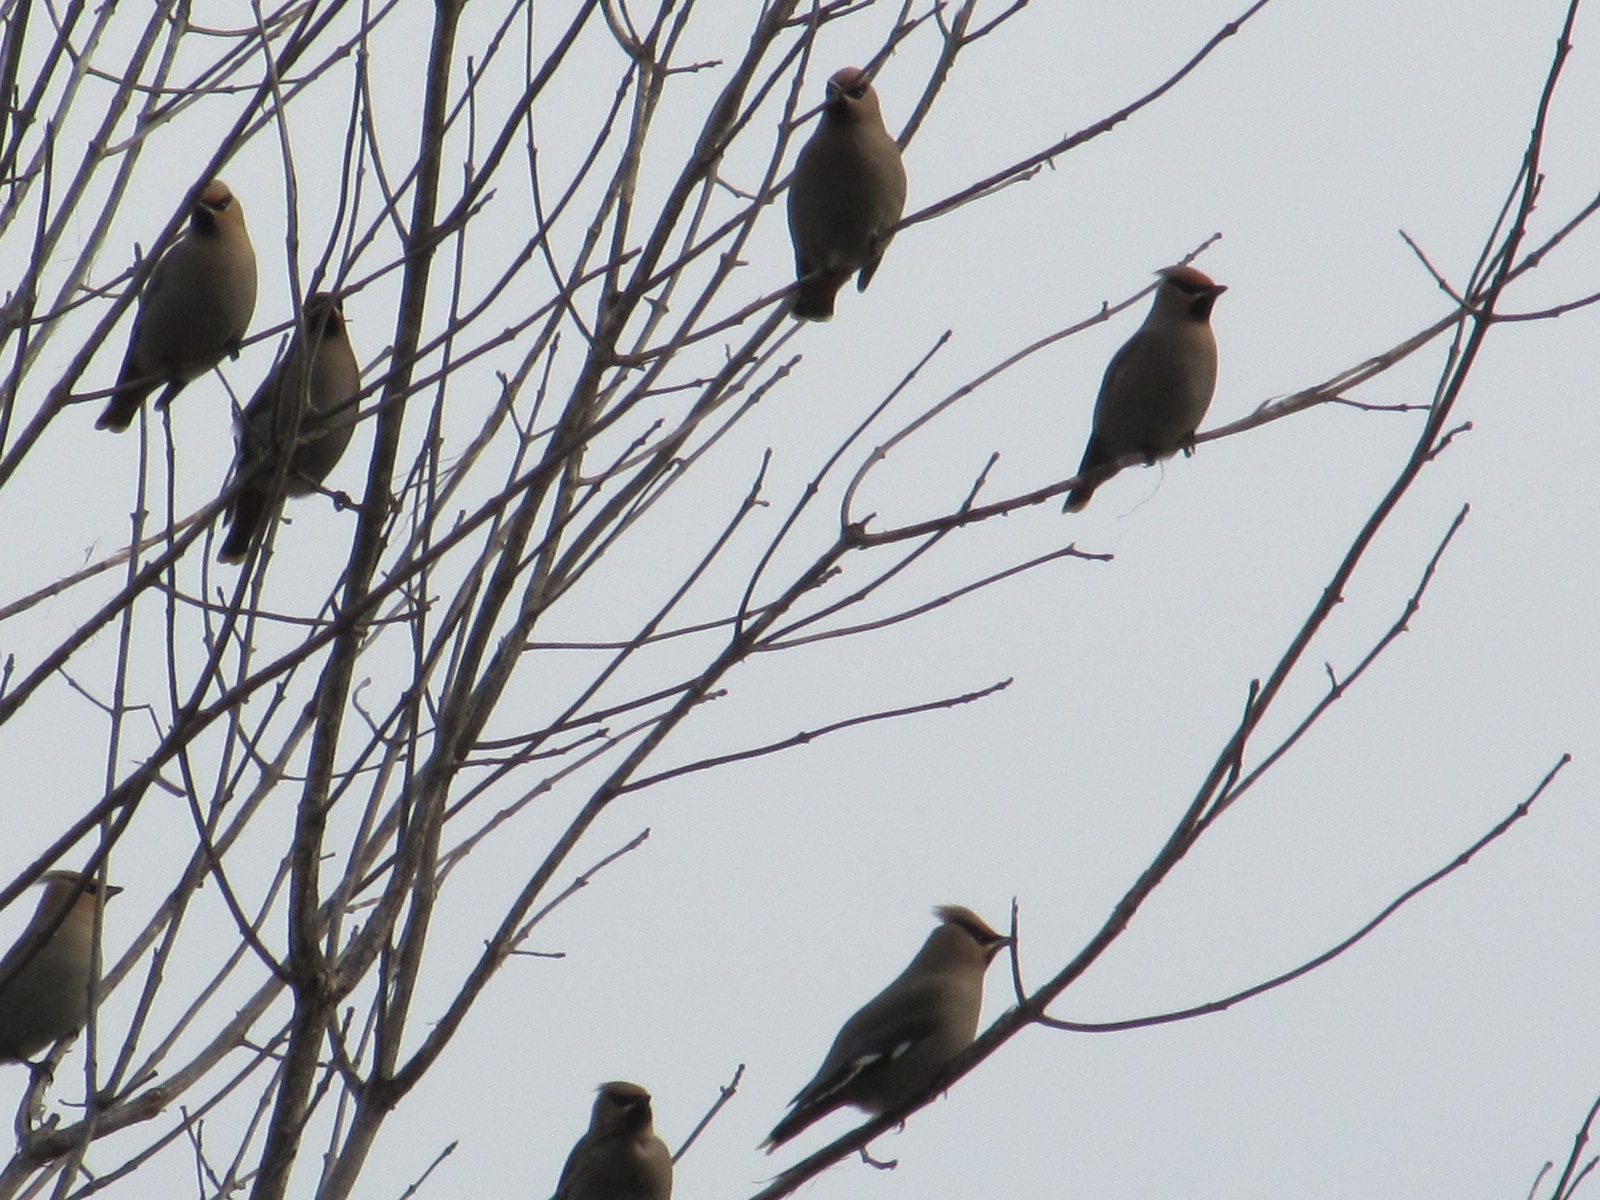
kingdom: Animalia
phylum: Chordata
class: Aves
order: Passeriformes
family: Bombycillidae
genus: Bombycilla
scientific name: Bombycilla garrulus
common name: Bohemian waxwing
